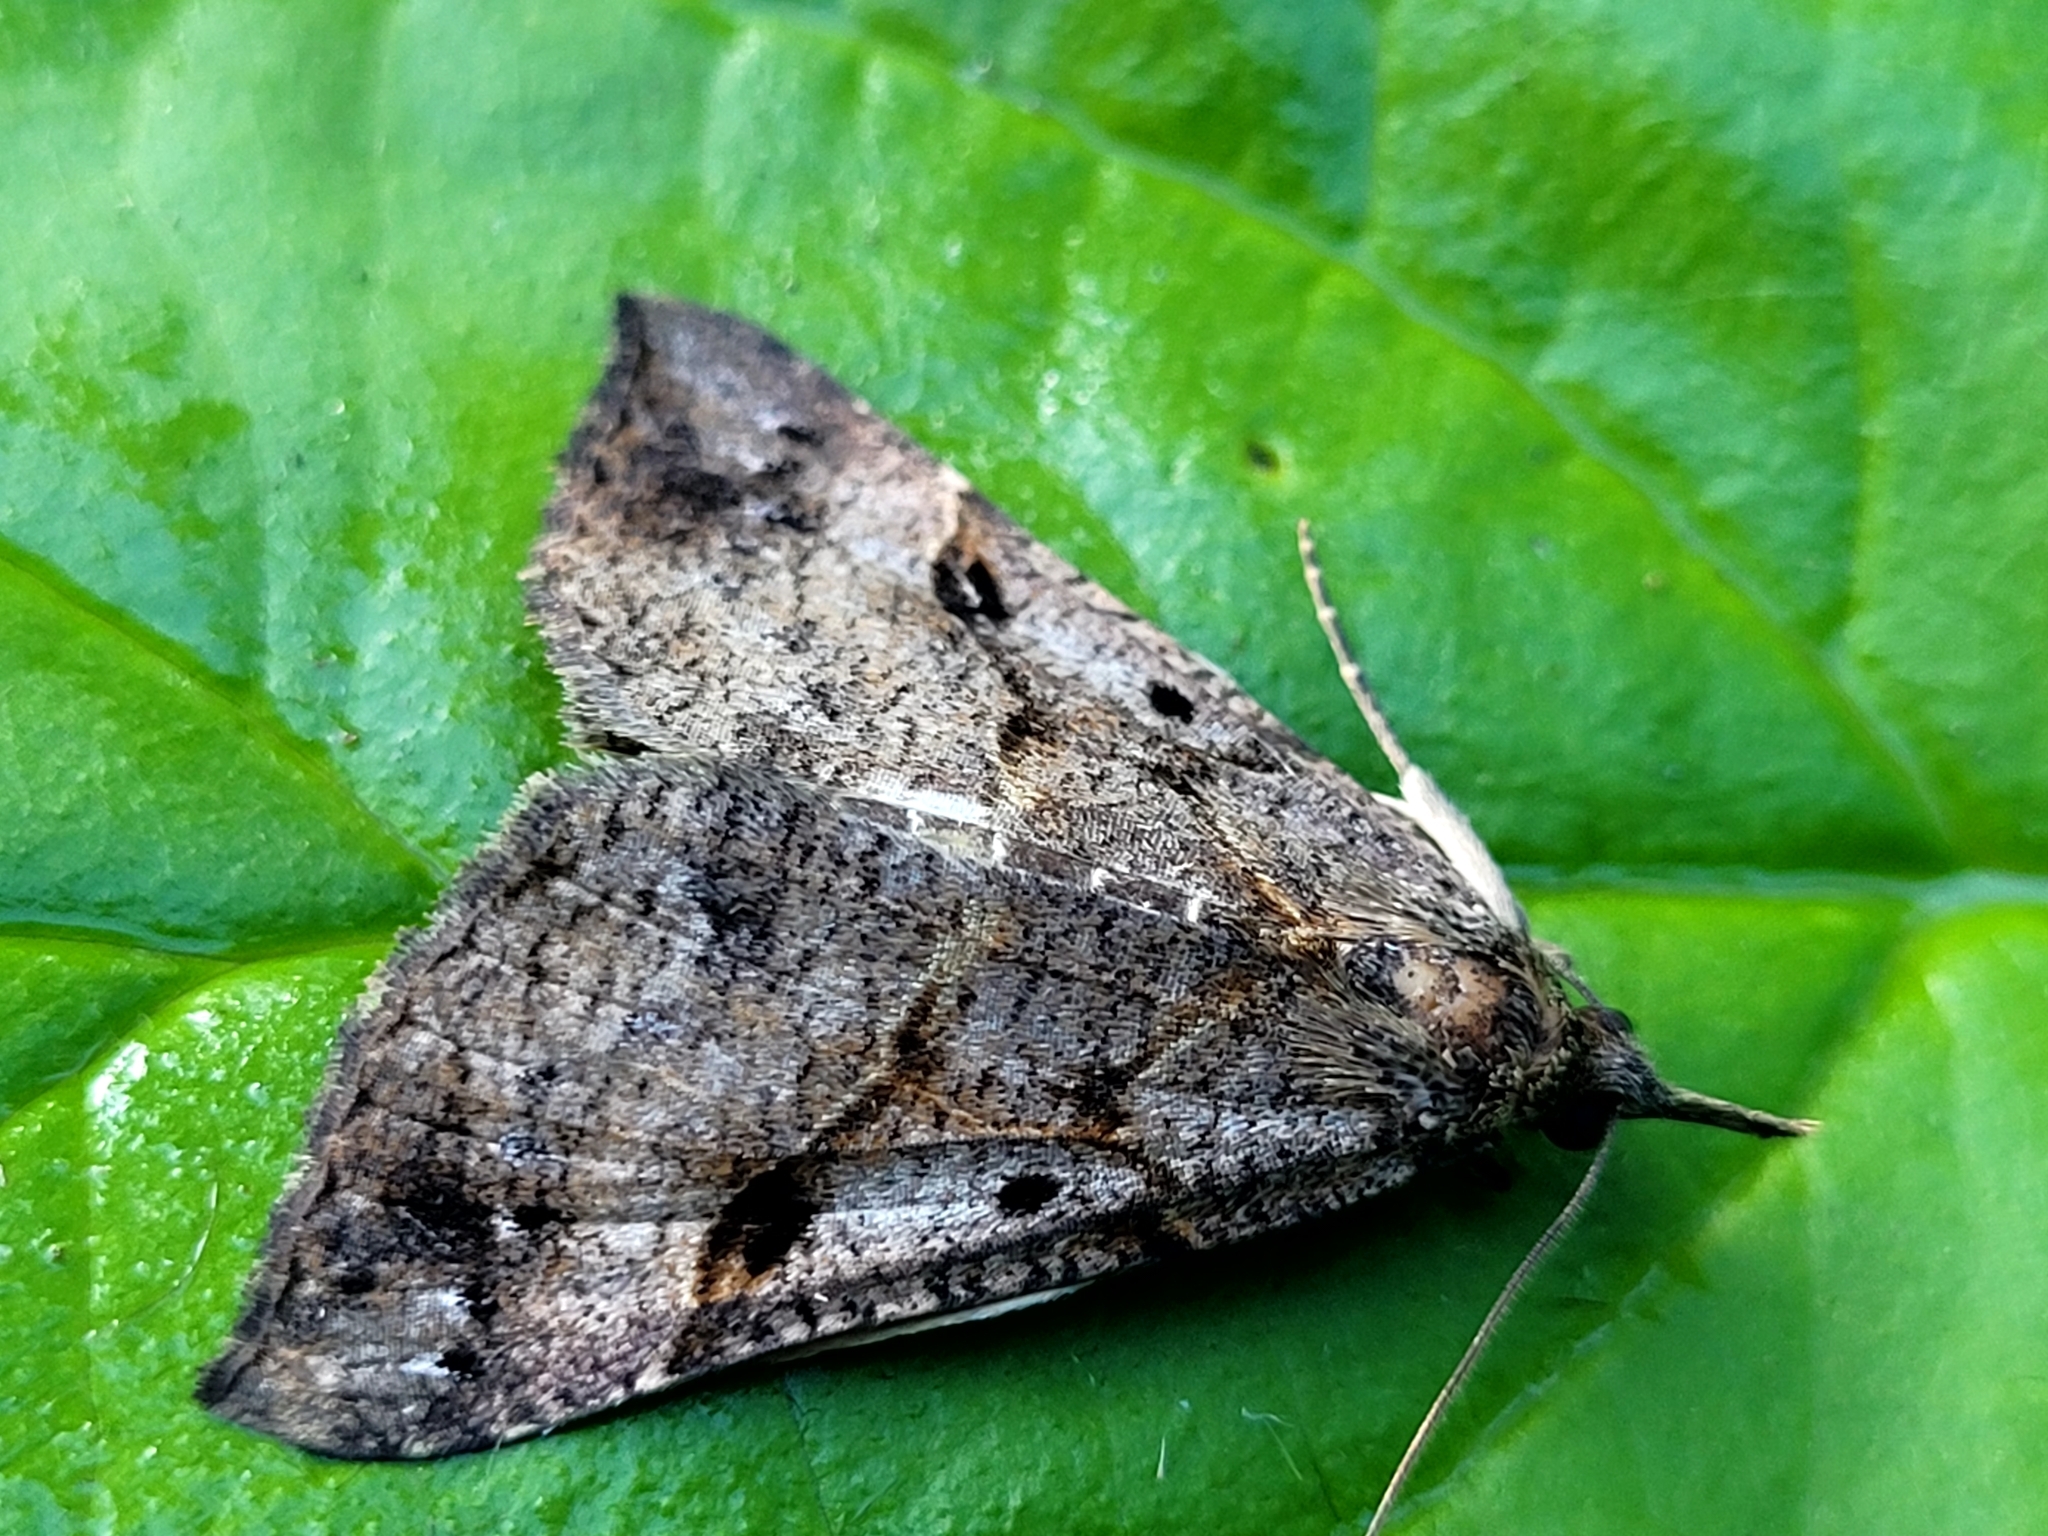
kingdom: Animalia
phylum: Arthropoda
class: Insecta
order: Lepidoptera
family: Erebidae
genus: Hypena
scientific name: Hypena edictalis
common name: Large snout
